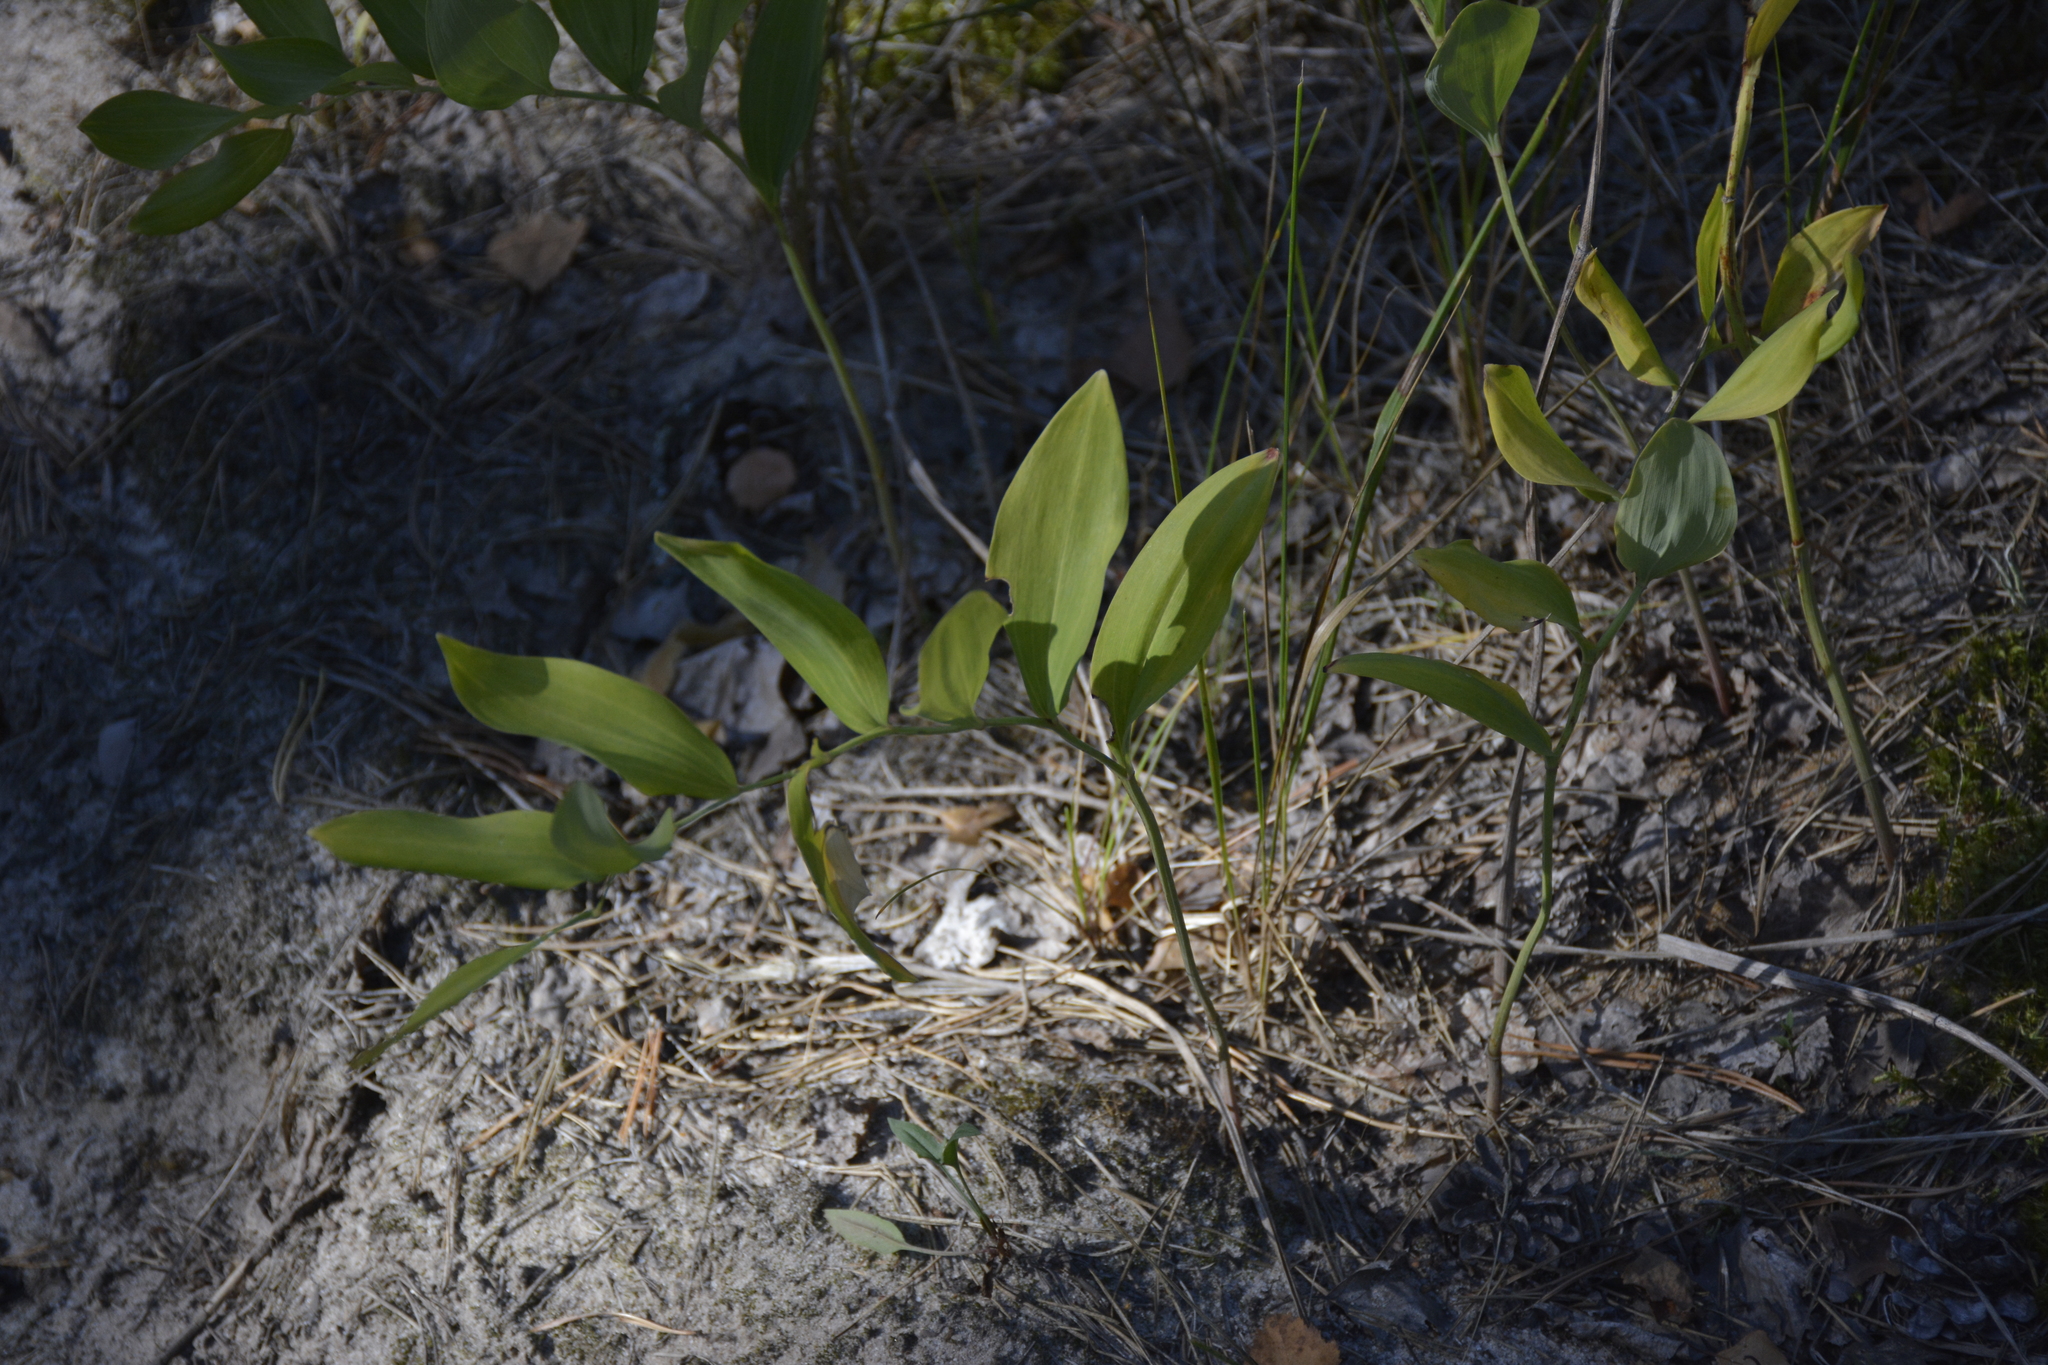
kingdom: Plantae
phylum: Tracheophyta
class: Liliopsida
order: Asparagales
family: Asparagaceae
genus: Polygonatum
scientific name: Polygonatum odoratum
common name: Angular solomon's-seal
